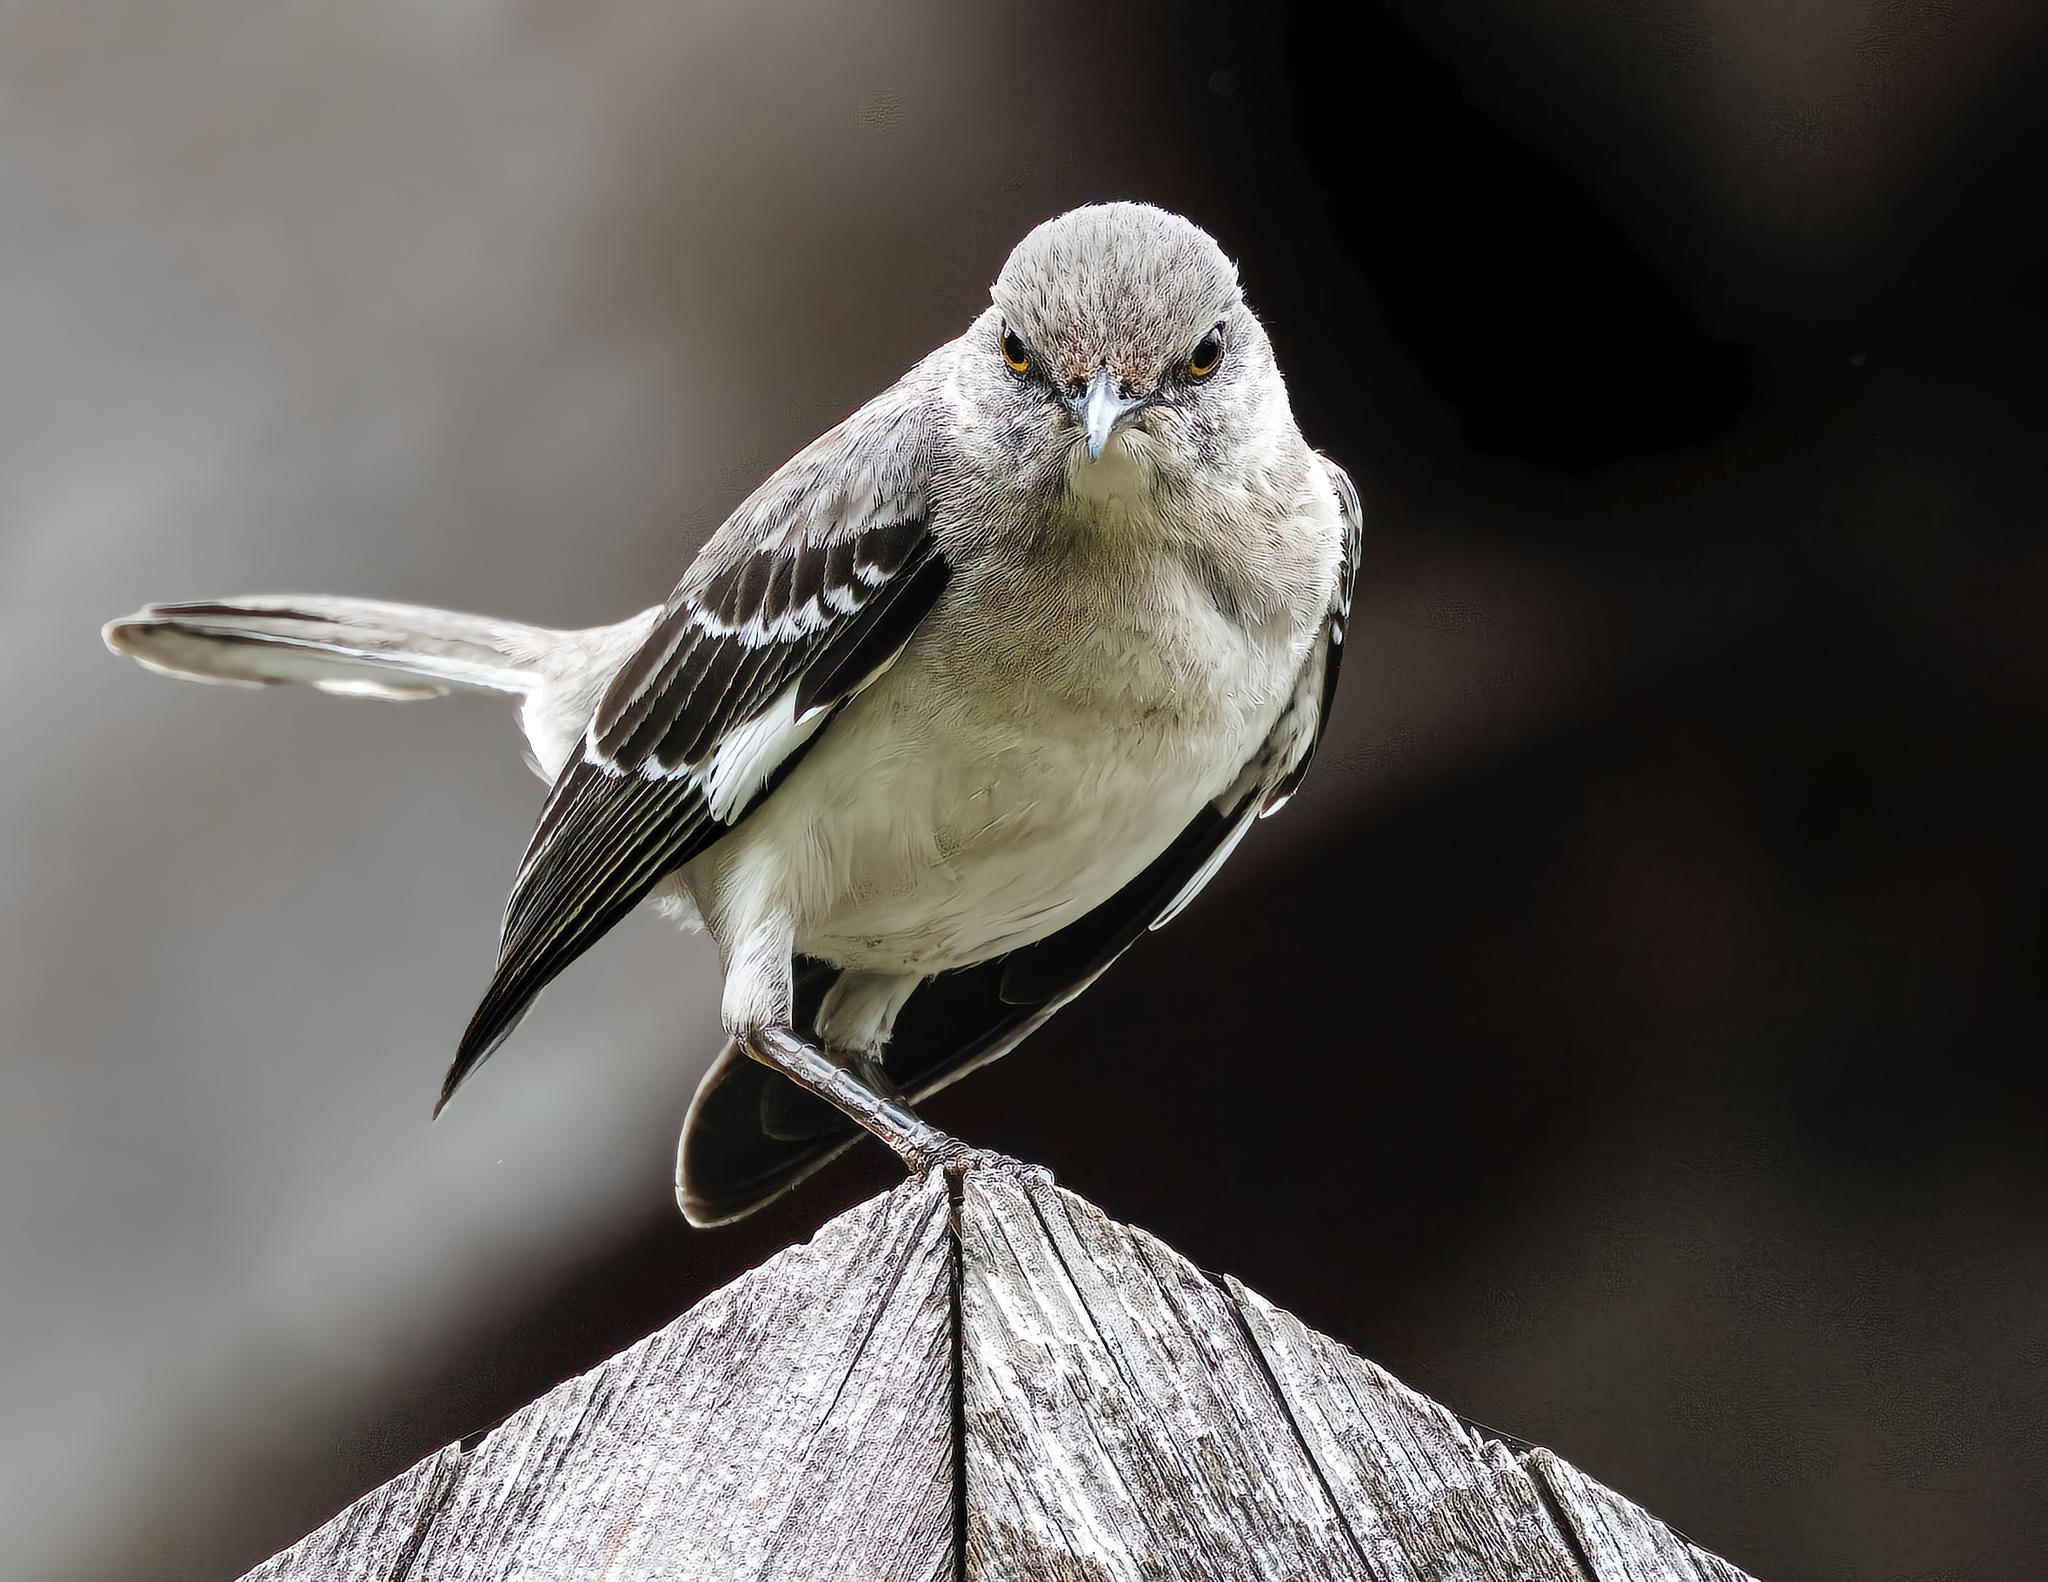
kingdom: Animalia
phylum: Chordata
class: Aves
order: Passeriformes
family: Mimidae
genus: Mimus
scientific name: Mimus polyglottos
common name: Northern mockingbird
